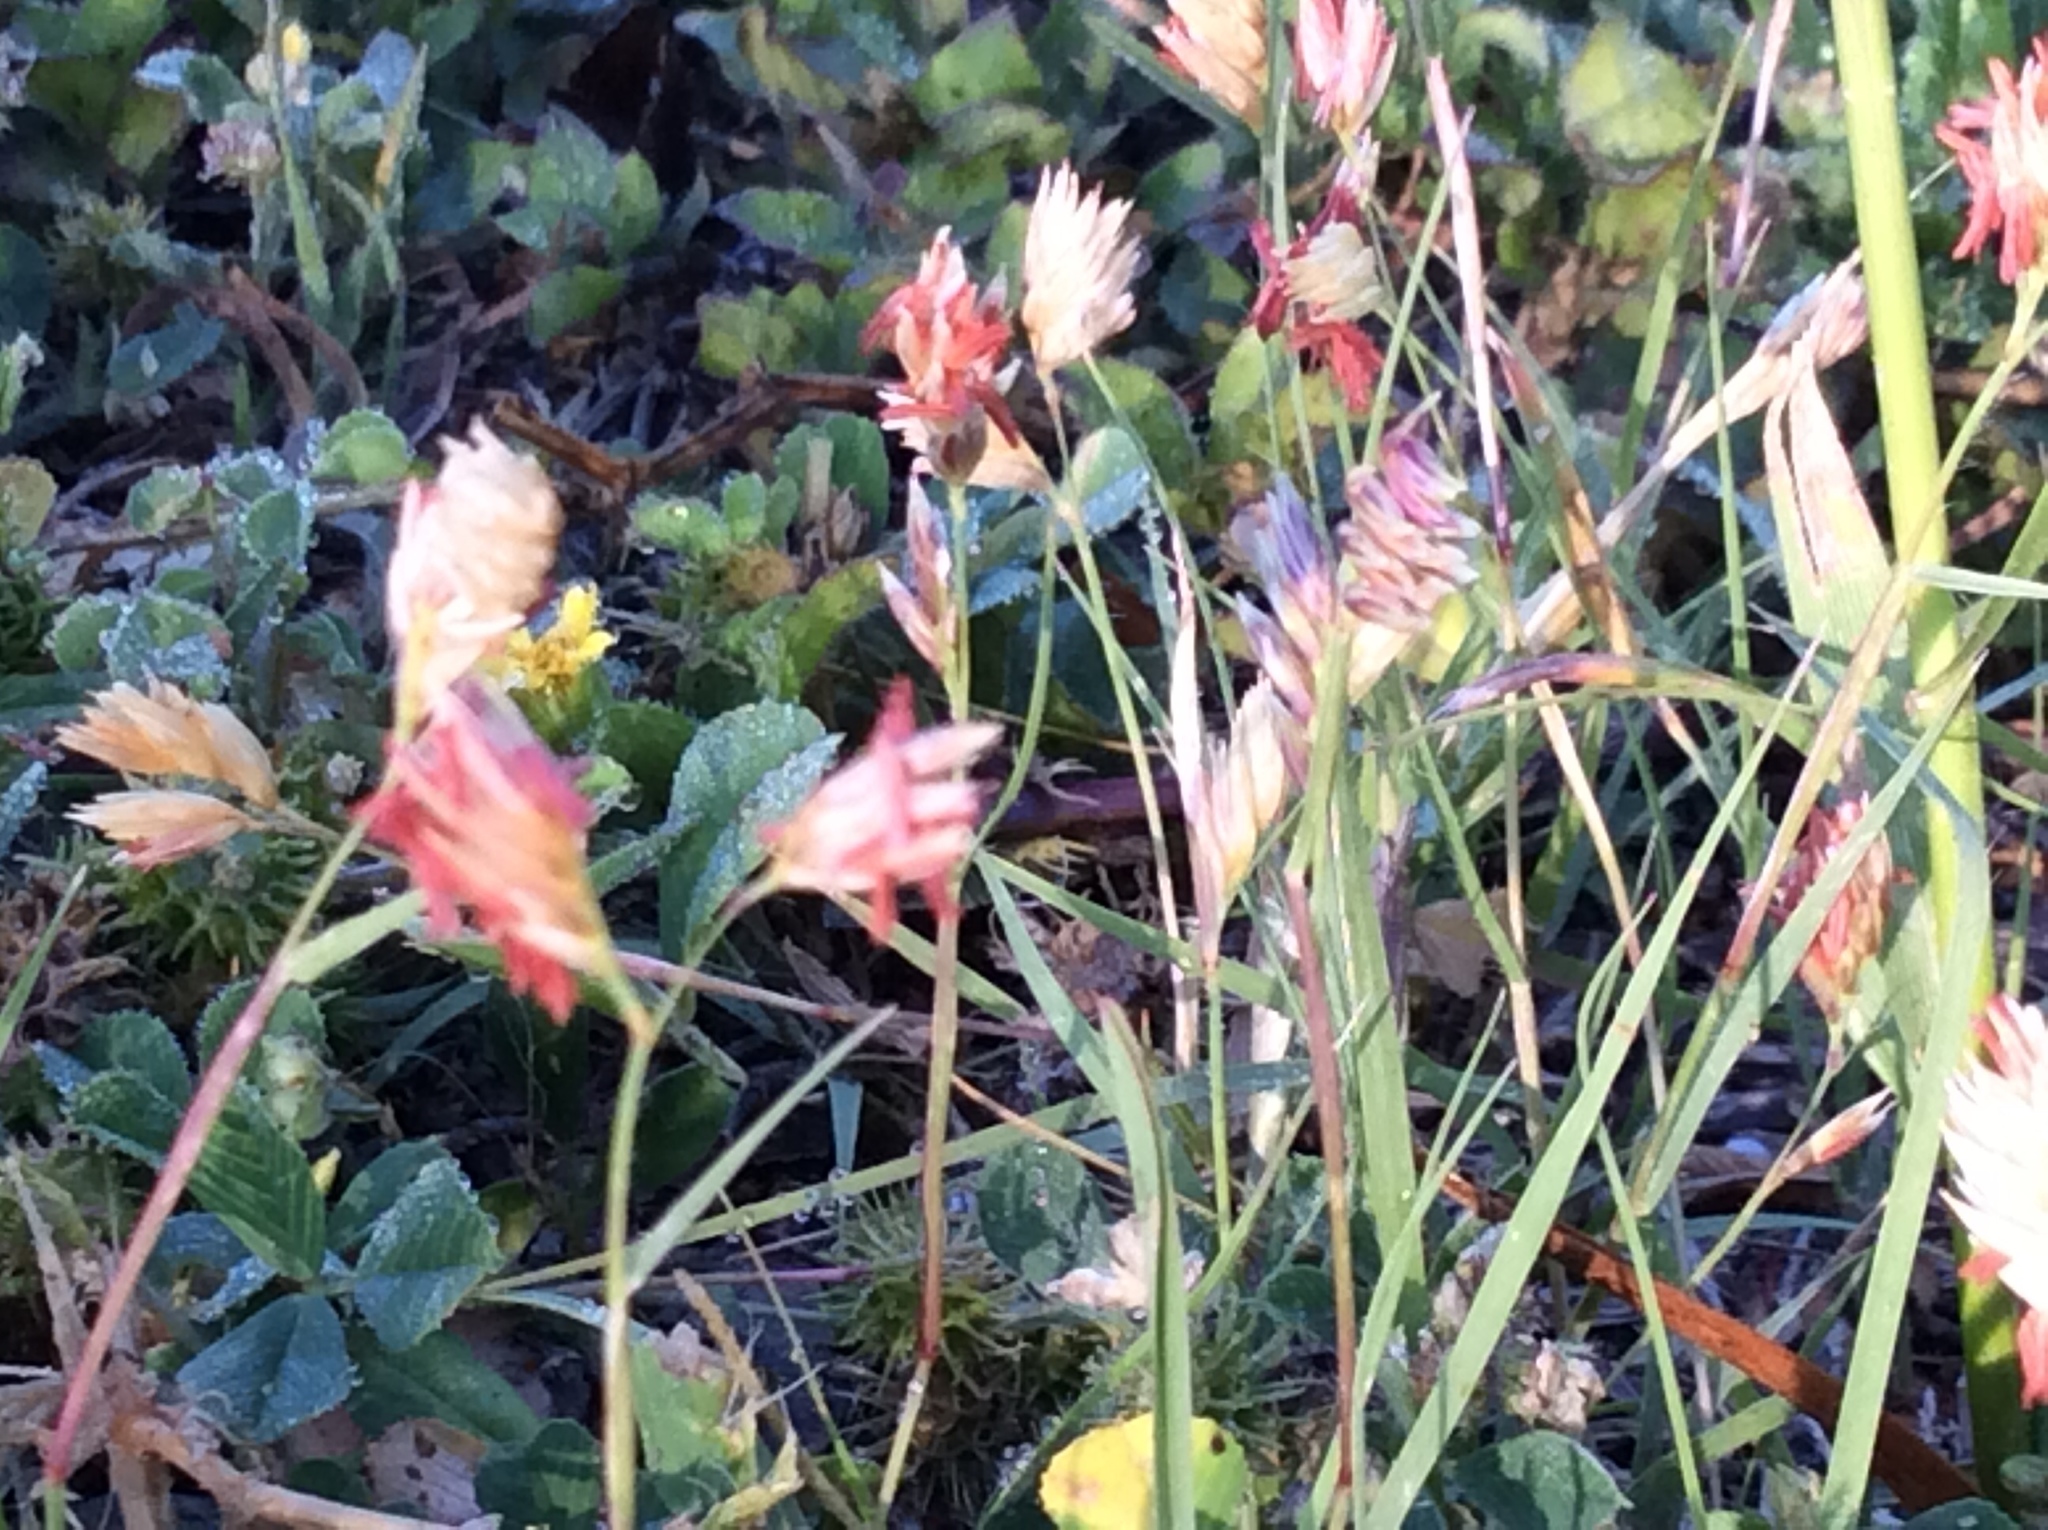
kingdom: Plantae
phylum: Tracheophyta
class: Liliopsida
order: Poales
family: Poaceae
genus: Bouteloua
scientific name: Bouteloua dactyloides
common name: Buffalo grass
